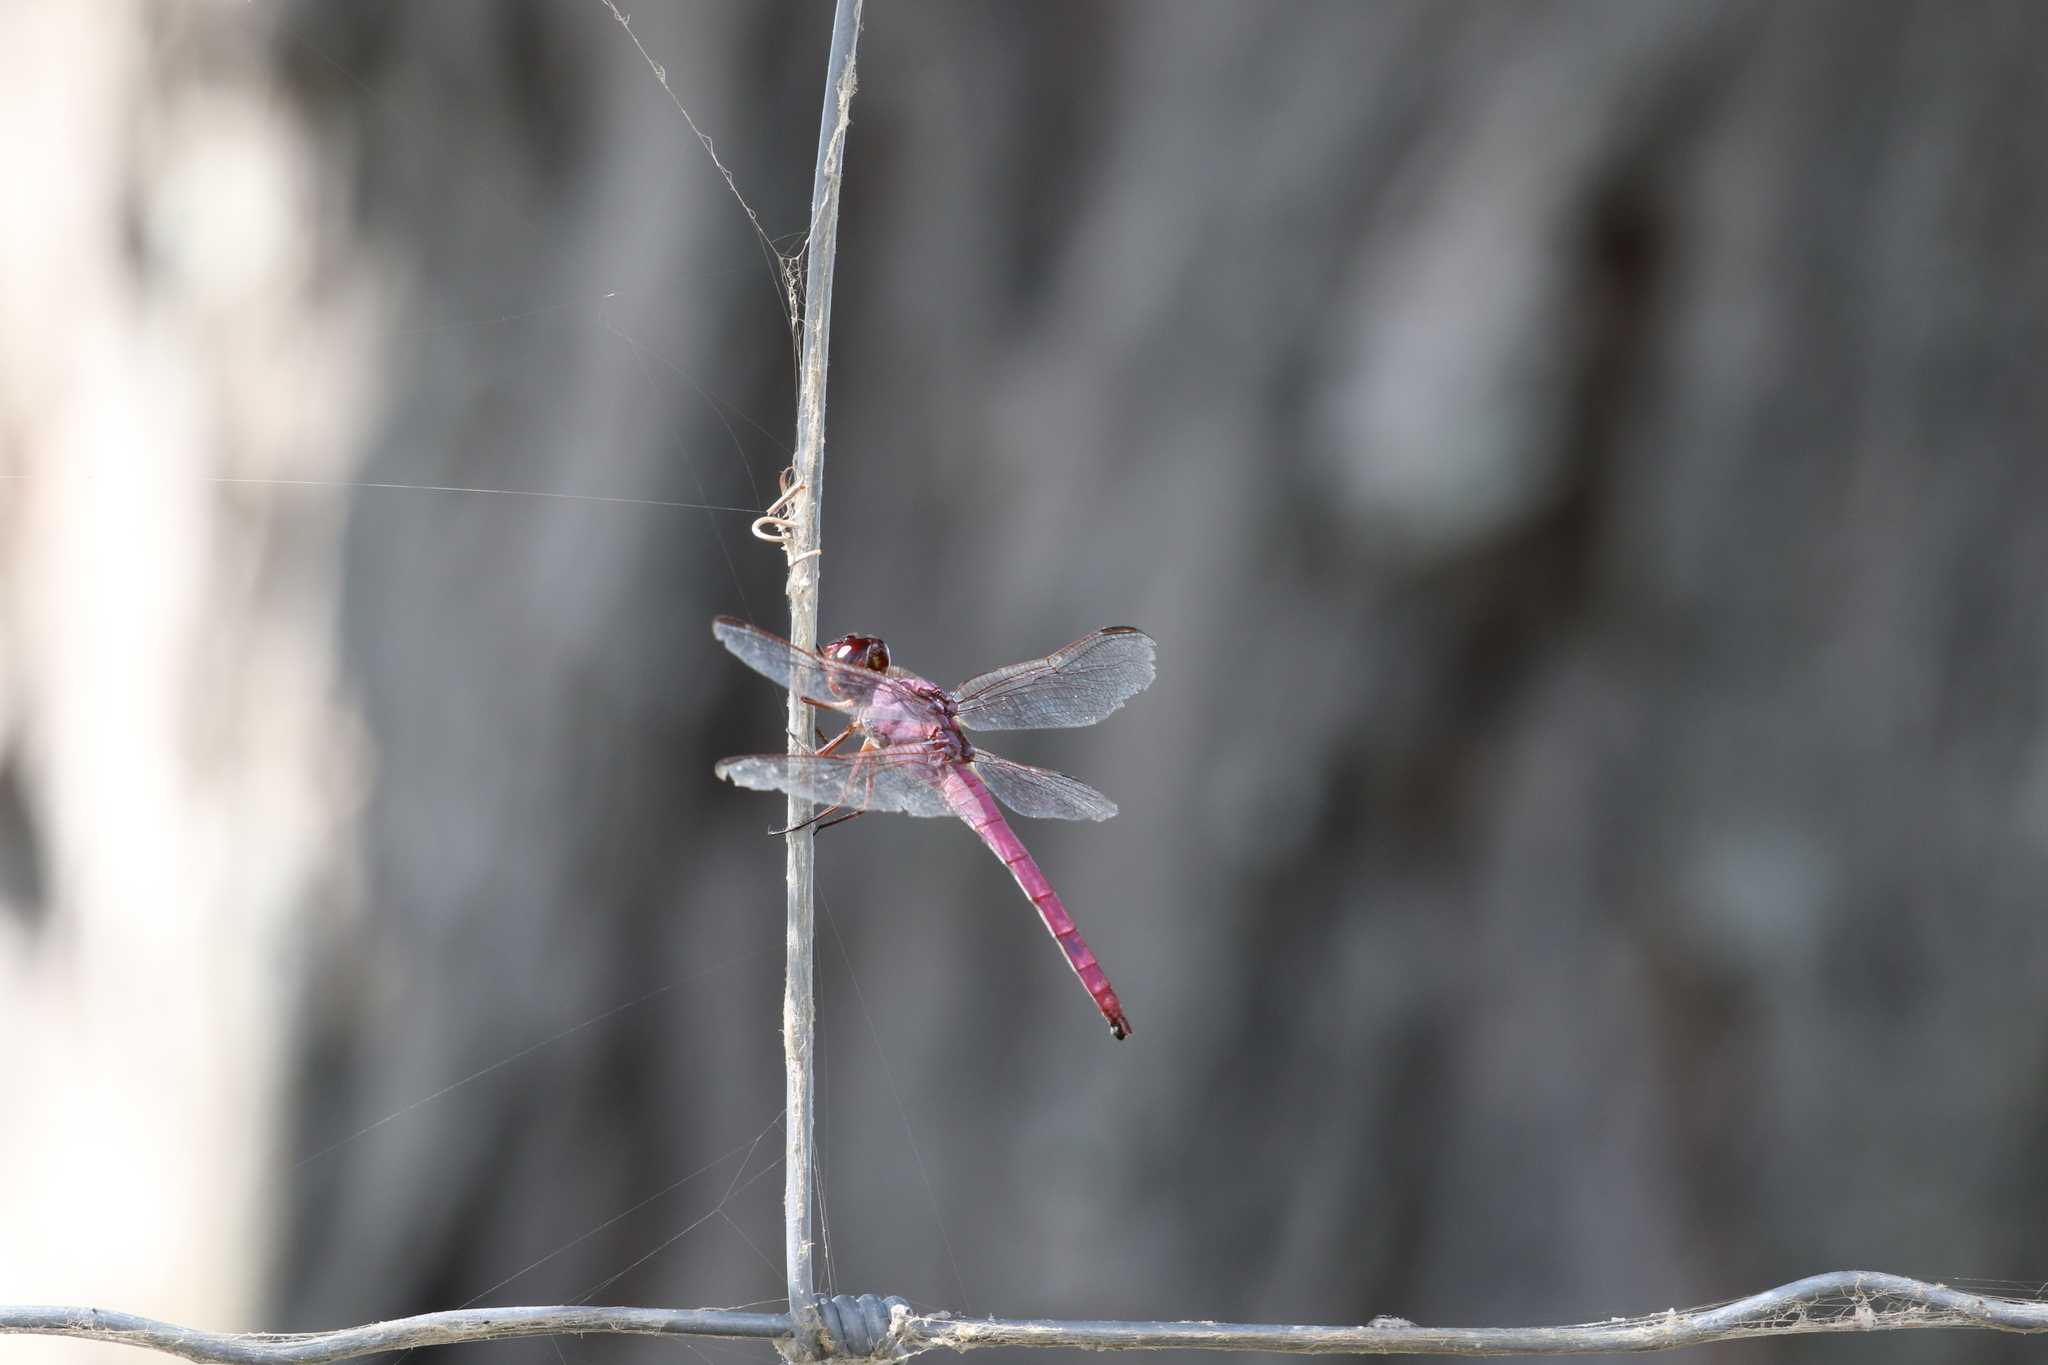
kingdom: Animalia
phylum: Arthropoda
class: Insecta
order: Odonata
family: Libellulidae
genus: Orthemis
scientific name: Orthemis ferruginea
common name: Roseate skimmer
